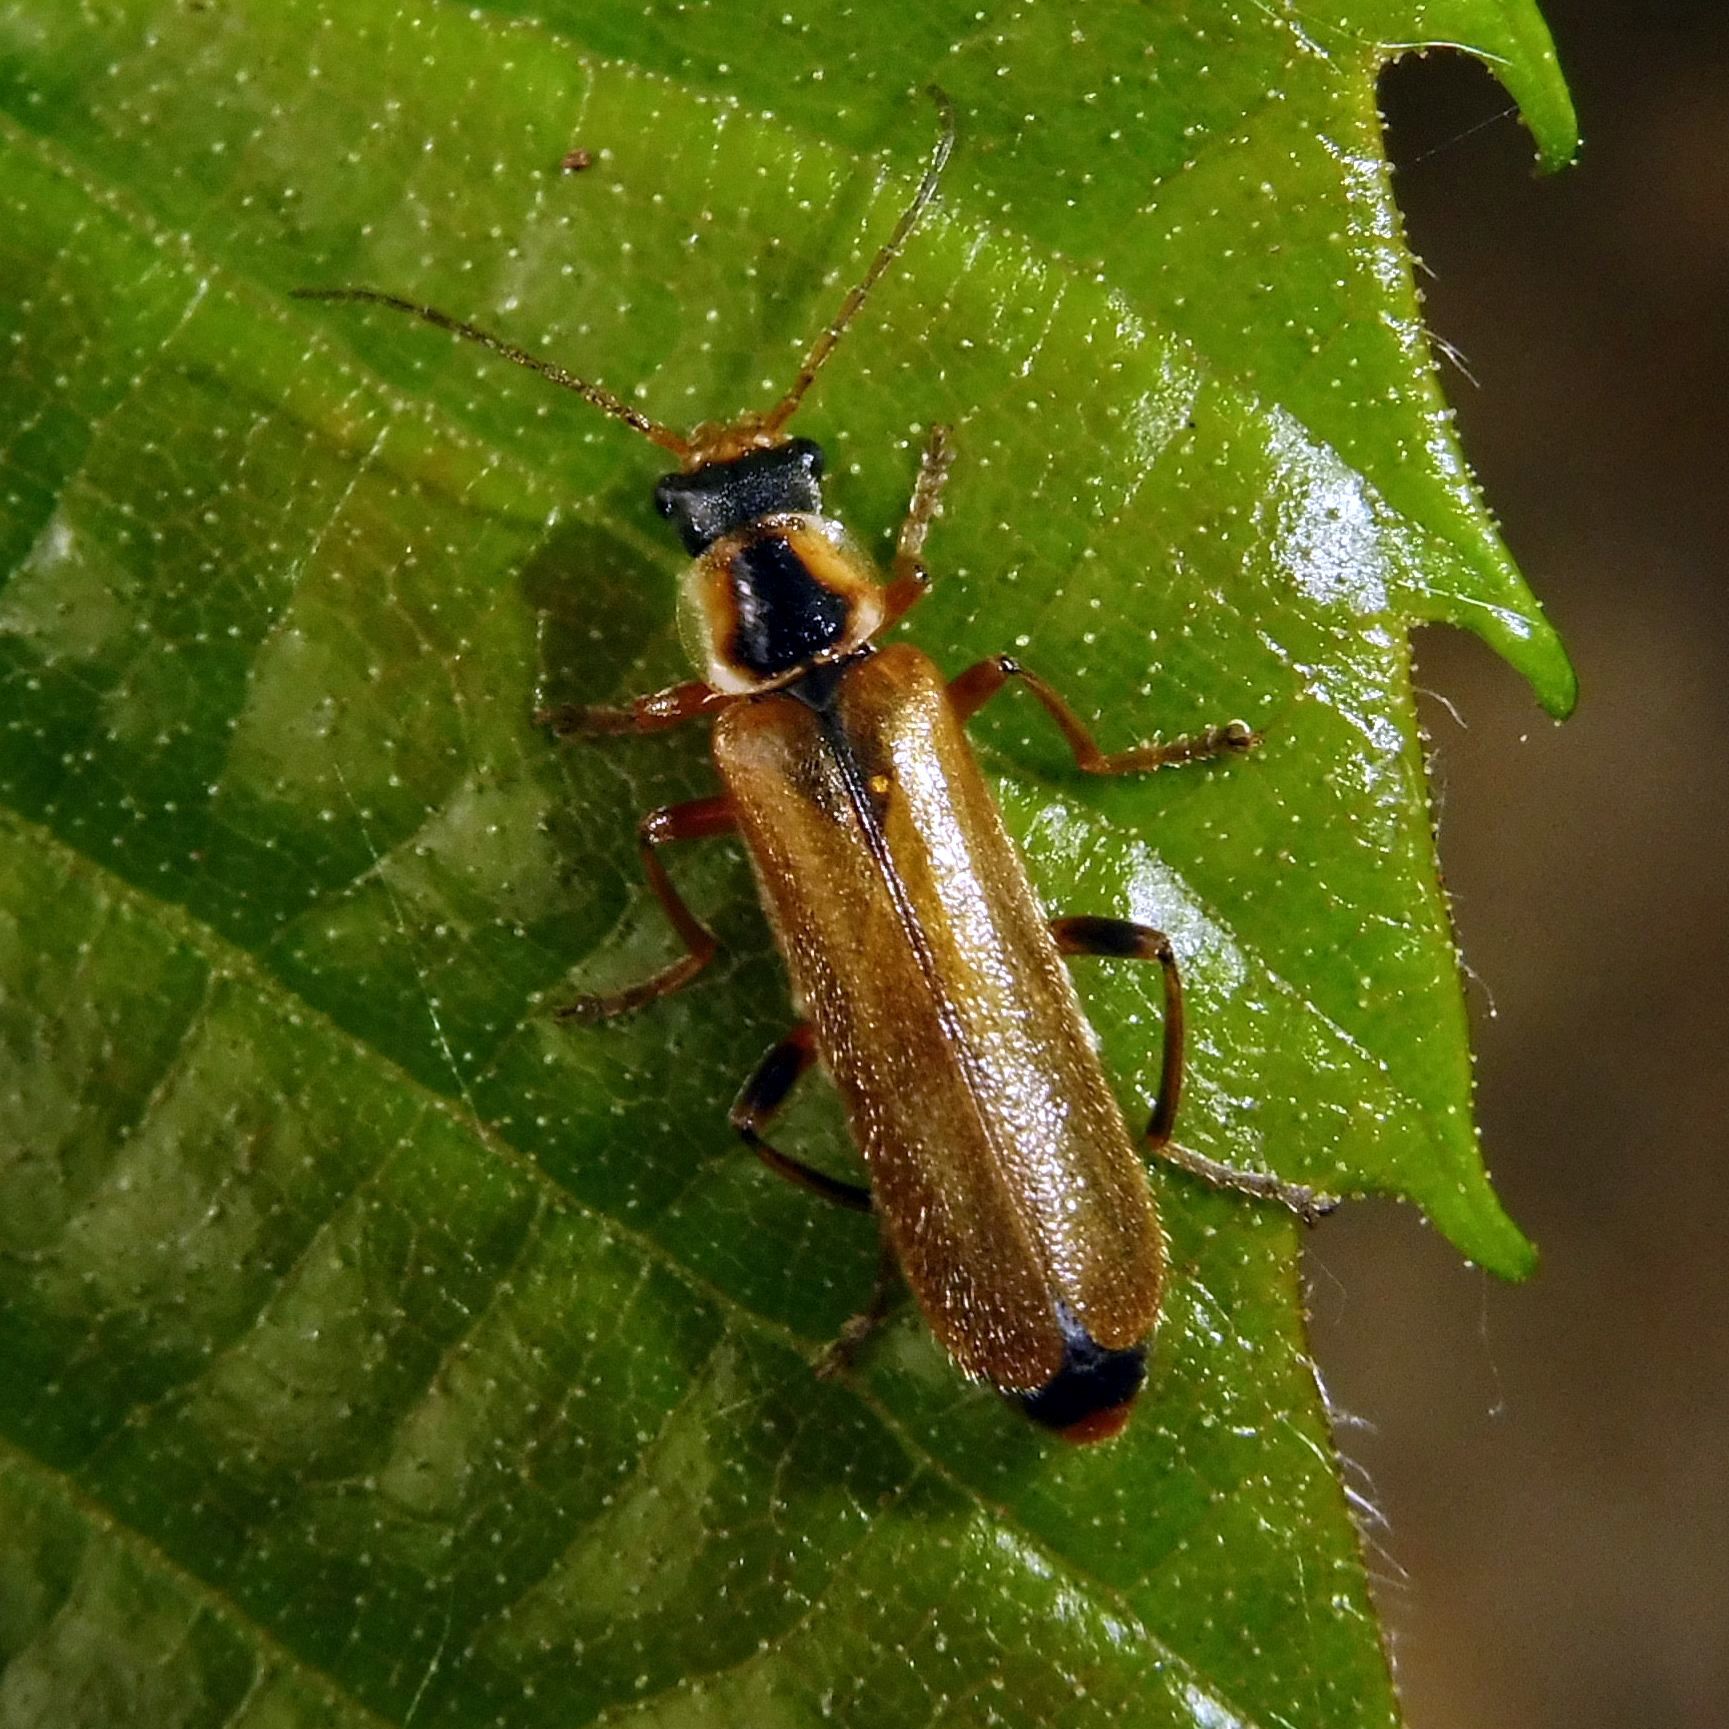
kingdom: Animalia
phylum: Arthropoda
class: Insecta
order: Coleoptera
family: Cantharidae
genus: Cantharis
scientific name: Cantharis decipiens
